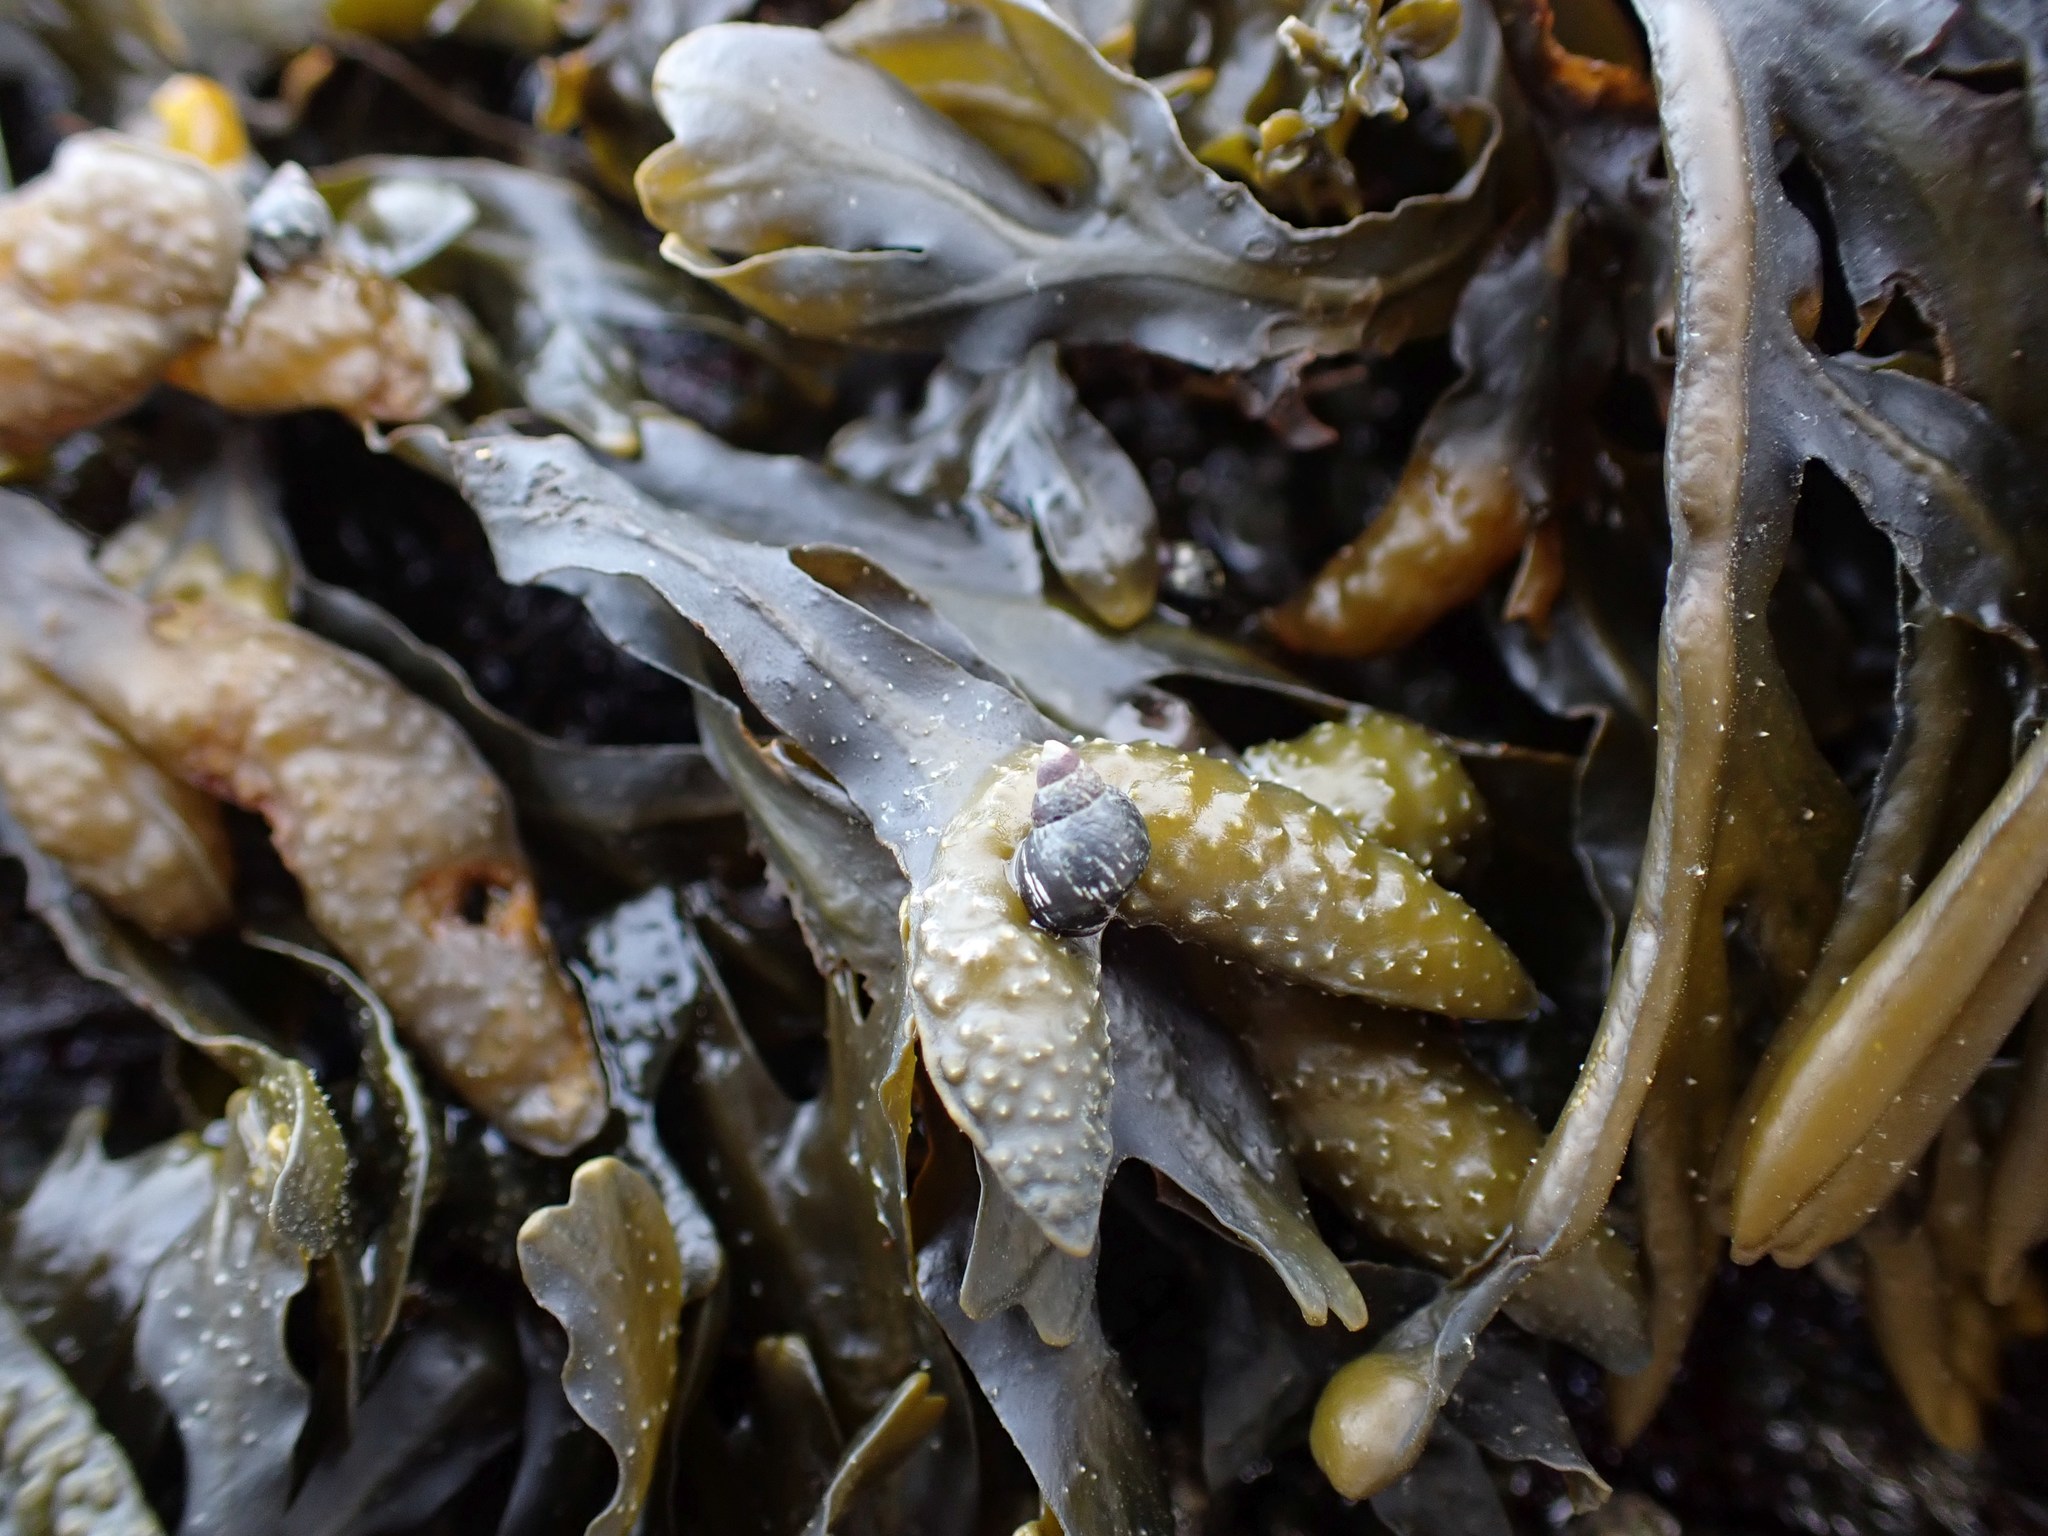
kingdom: Chromista
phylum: Ochrophyta
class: Phaeophyceae
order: Fucales
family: Fucaceae
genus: Fucus
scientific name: Fucus distichus
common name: Rockweed
